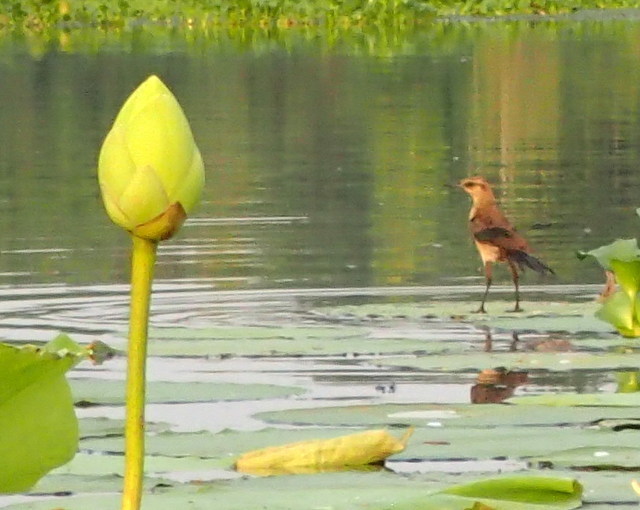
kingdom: Animalia
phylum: Chordata
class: Aves
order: Passeriformes
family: Icteridae
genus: Quiscalus
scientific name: Quiscalus major
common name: Boat-tailed grackle
